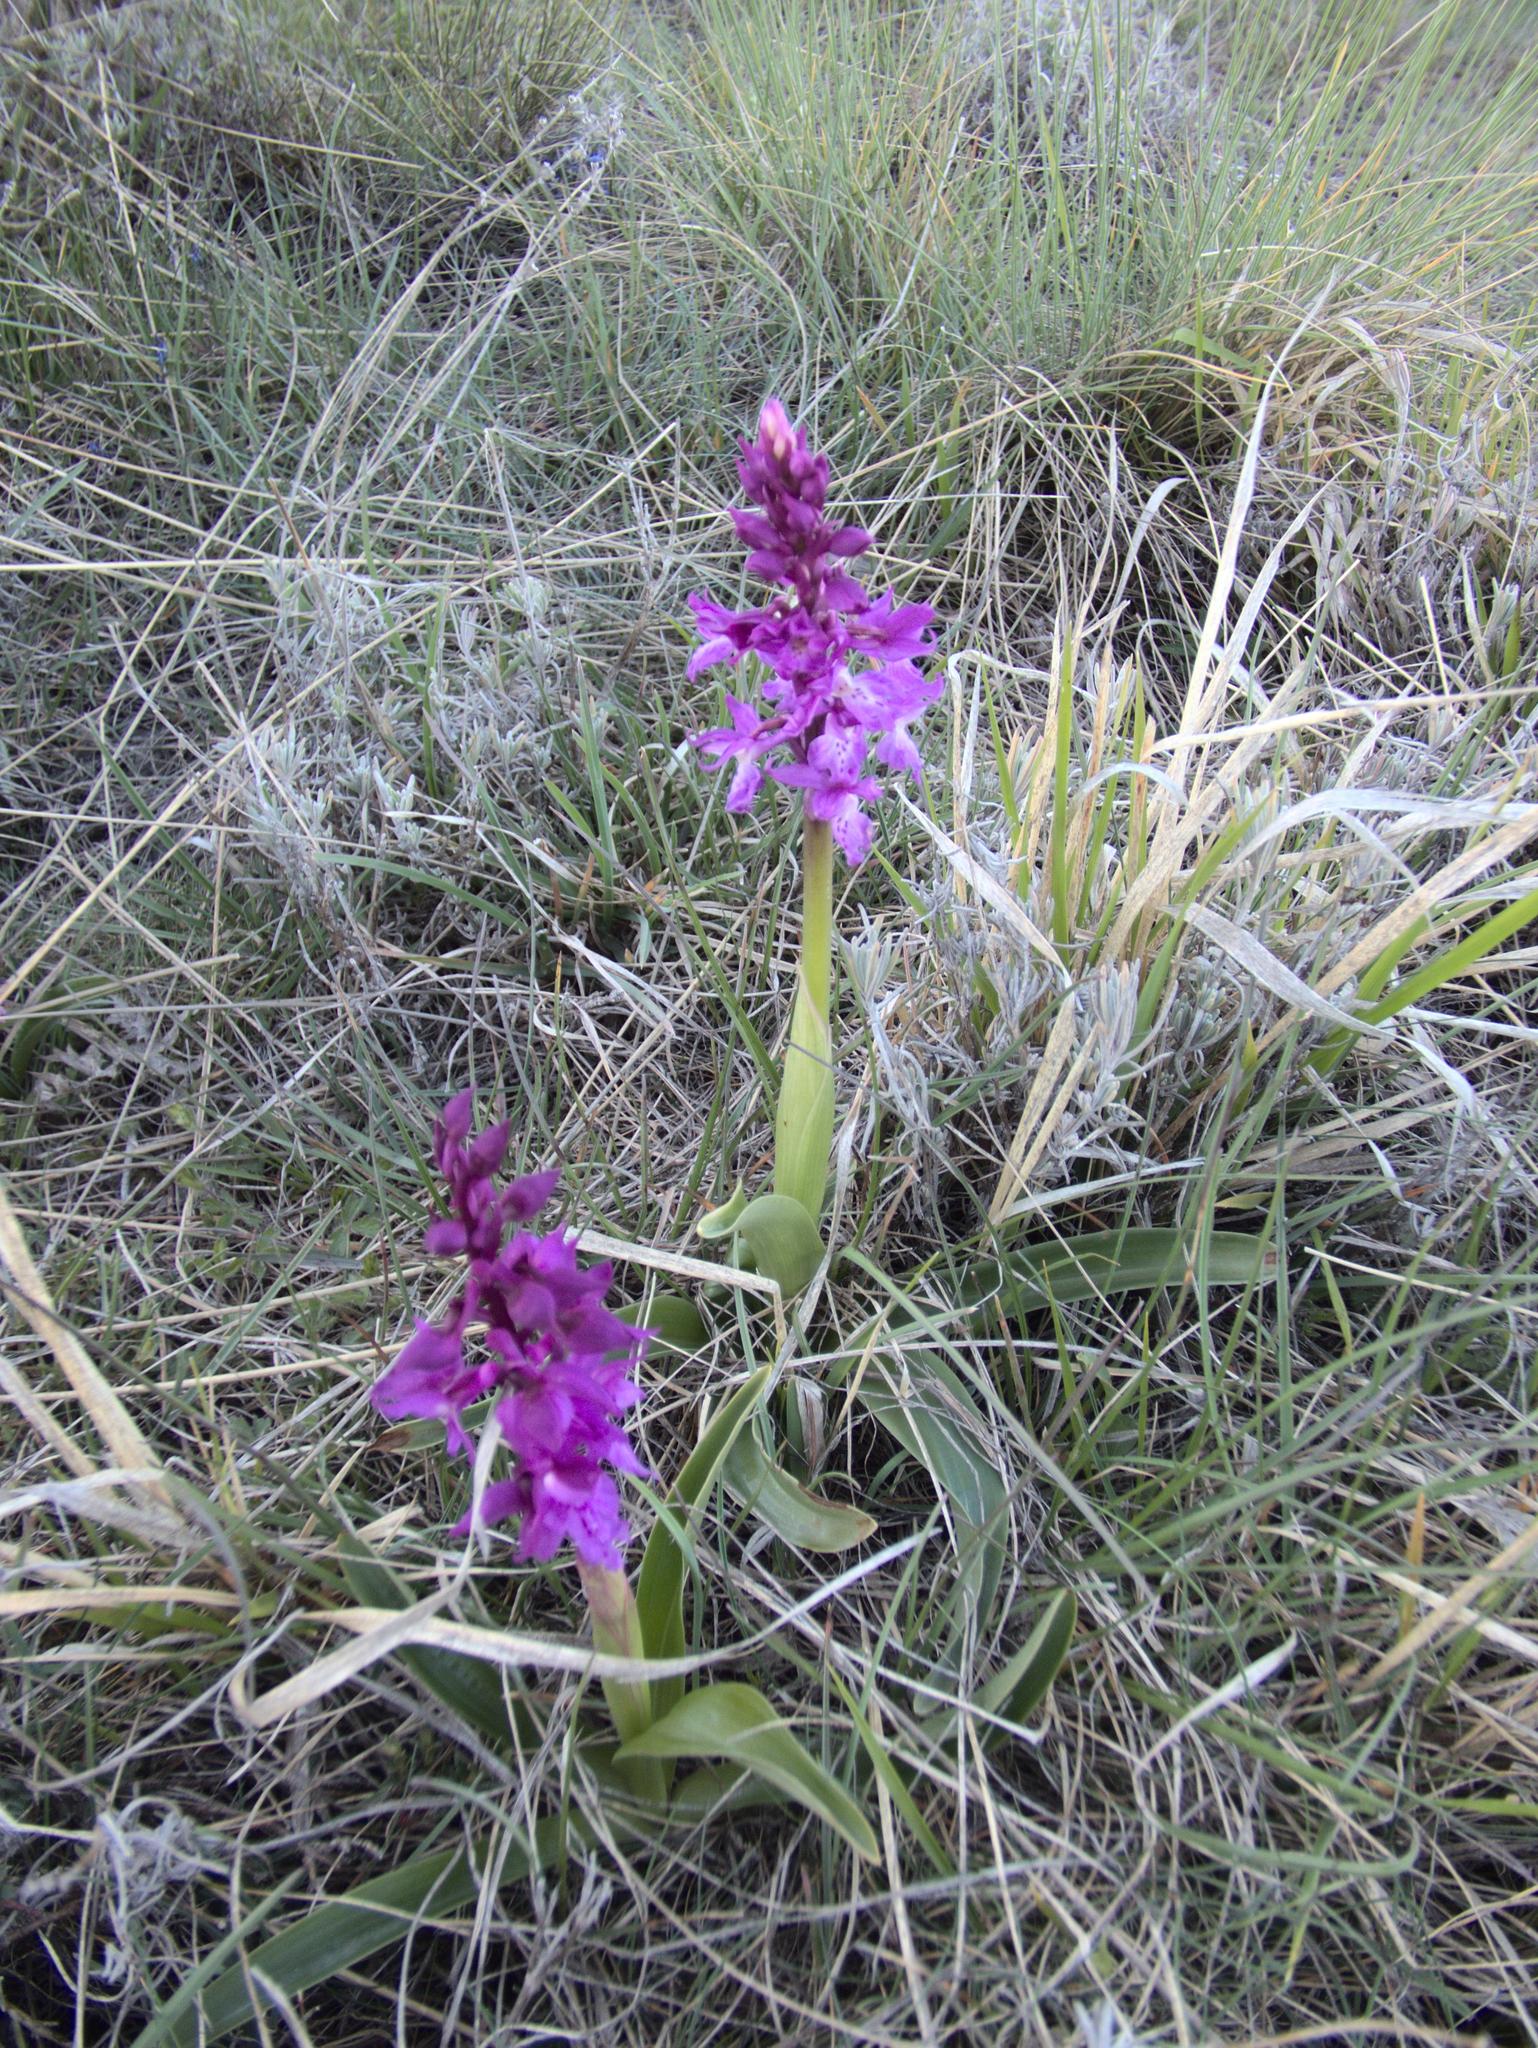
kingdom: Plantae
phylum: Tracheophyta
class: Liliopsida
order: Asparagales
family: Orchidaceae
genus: Orchis
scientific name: Orchis mascula
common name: Early-purple orchid
